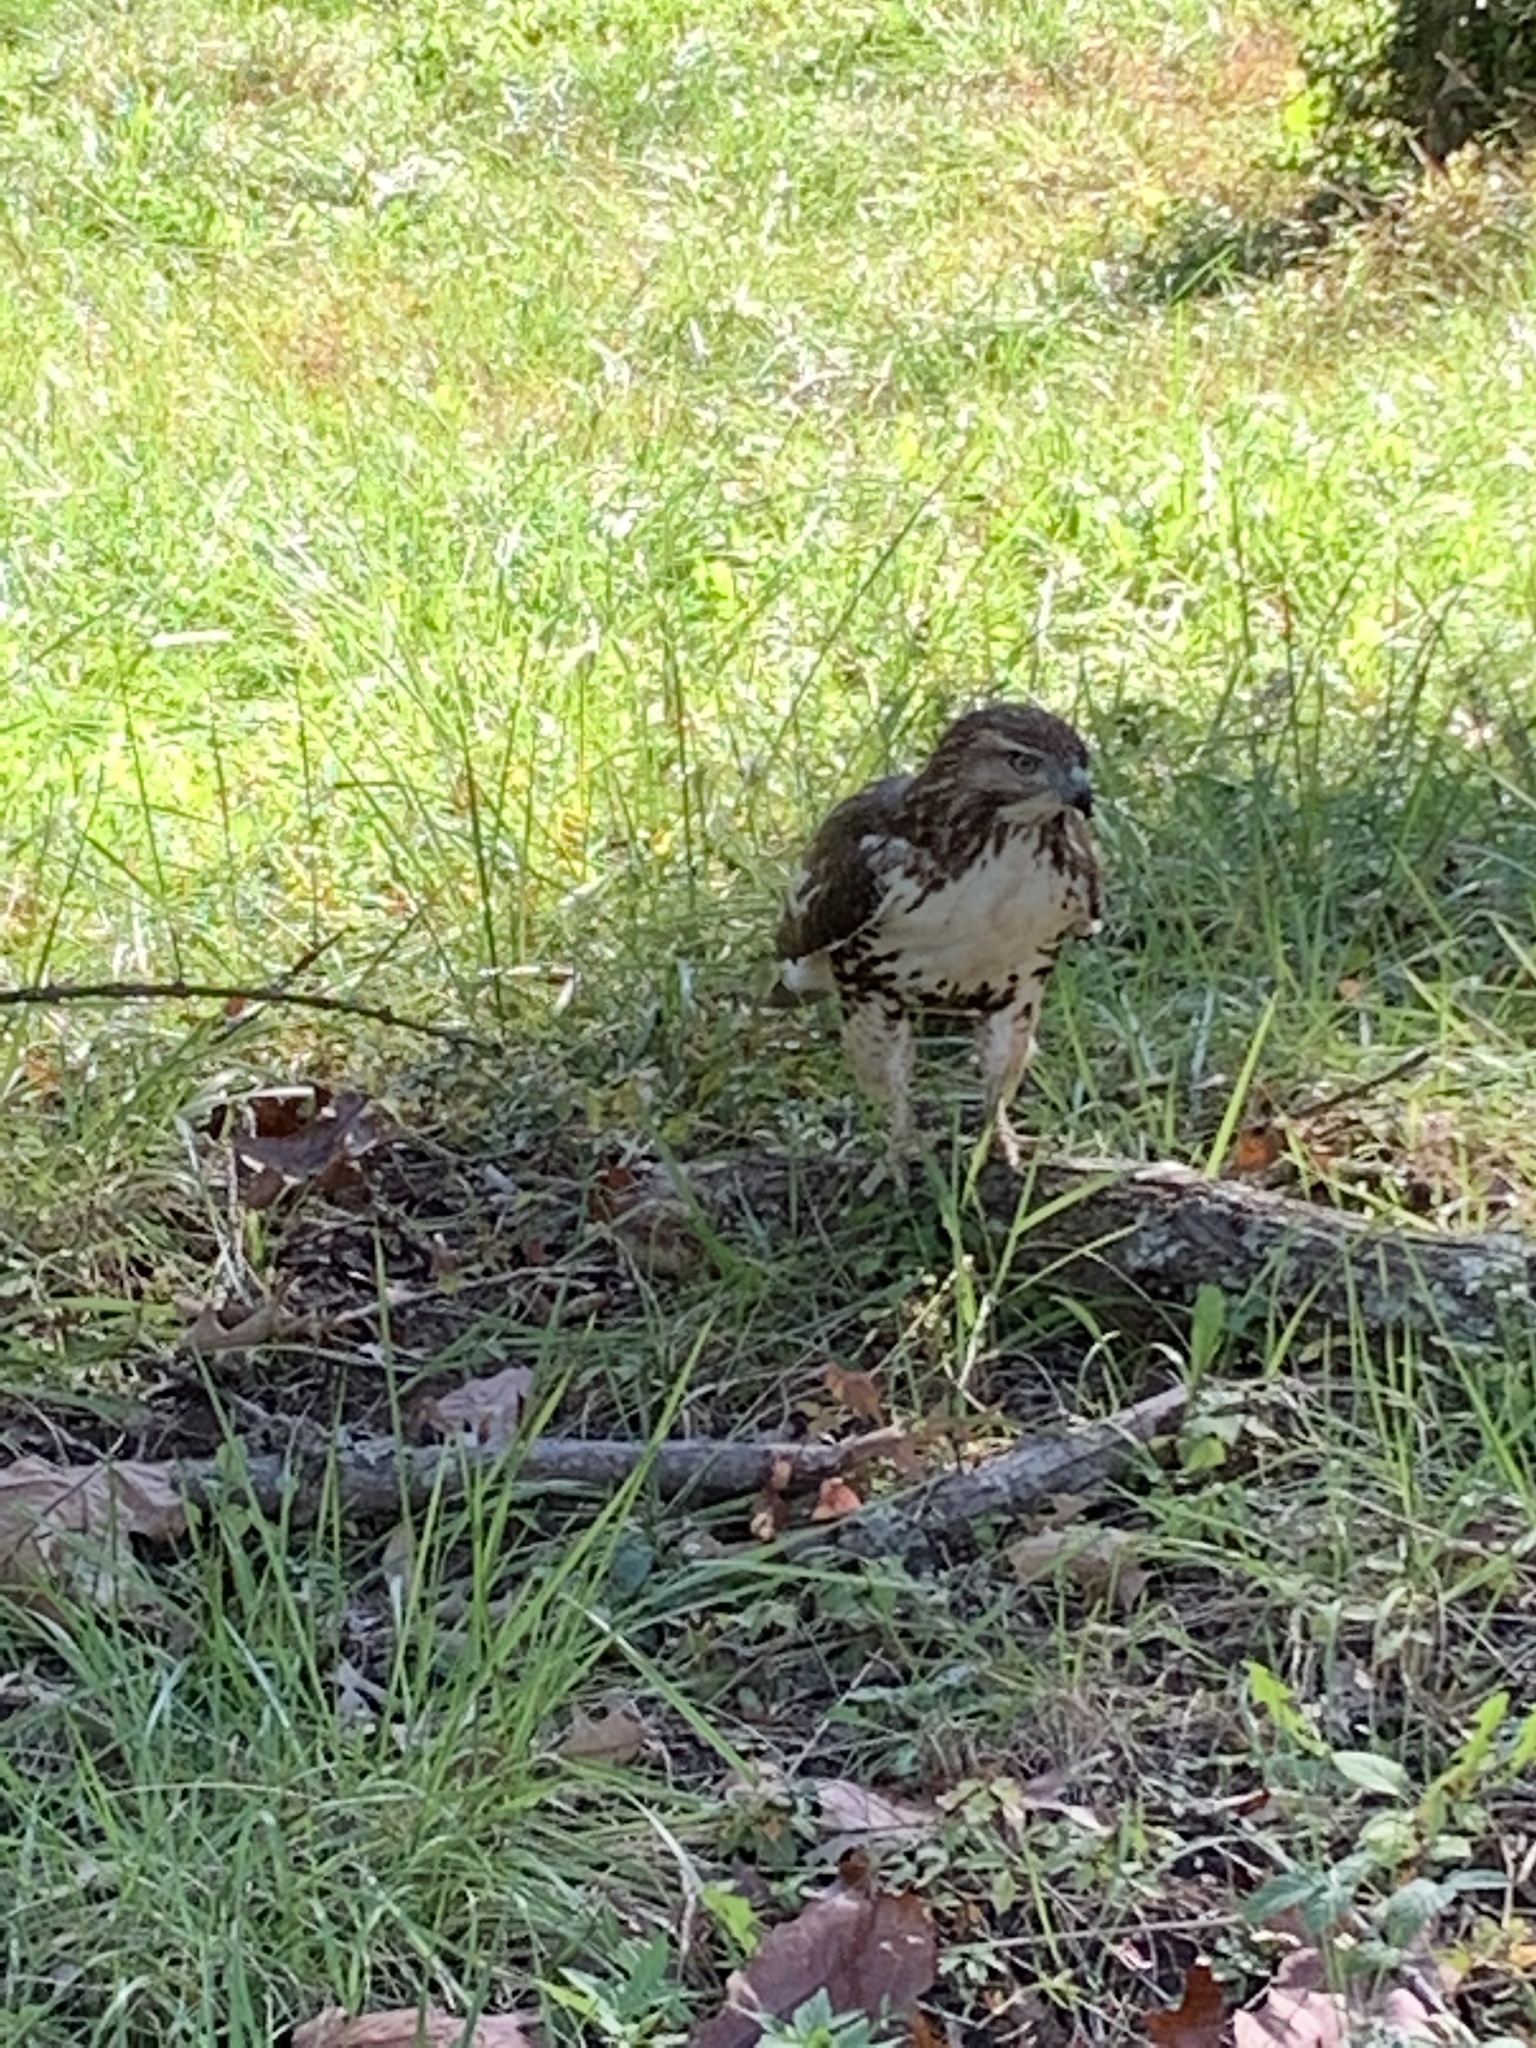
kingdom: Animalia
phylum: Chordata
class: Aves
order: Accipitriformes
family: Accipitridae
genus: Buteo
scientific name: Buteo jamaicensis
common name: Red-tailed hawk
